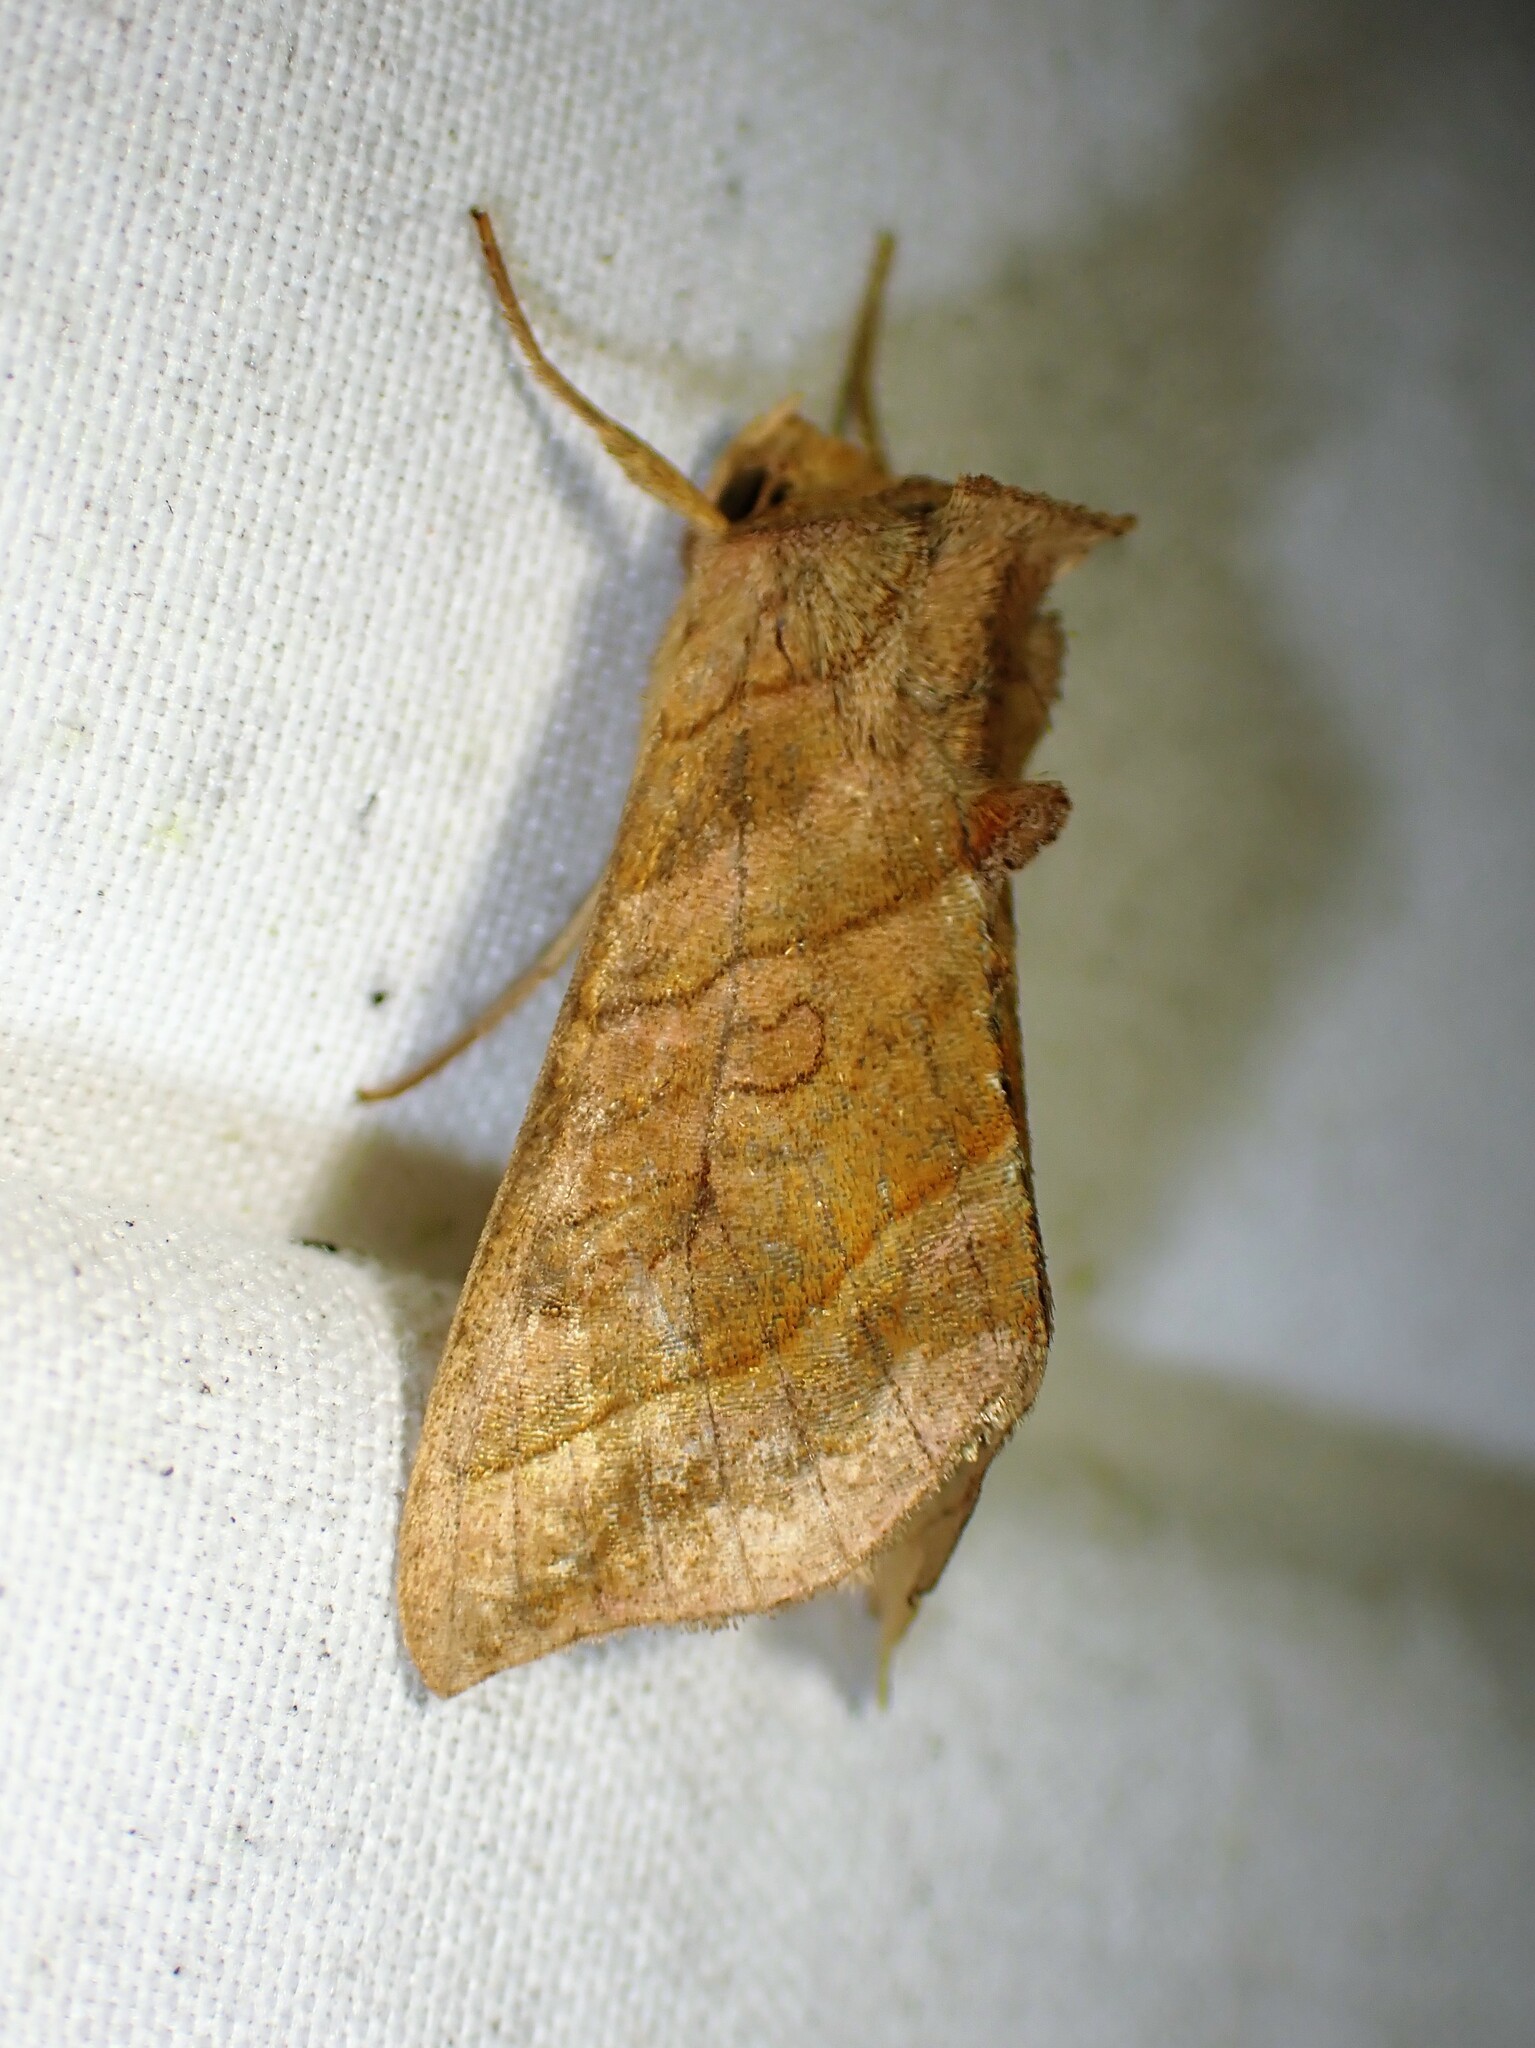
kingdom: Animalia
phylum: Arthropoda
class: Insecta
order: Lepidoptera
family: Noctuidae
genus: Diachrysia
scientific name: Diachrysia aereoides
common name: Dark-spotted looper moth
